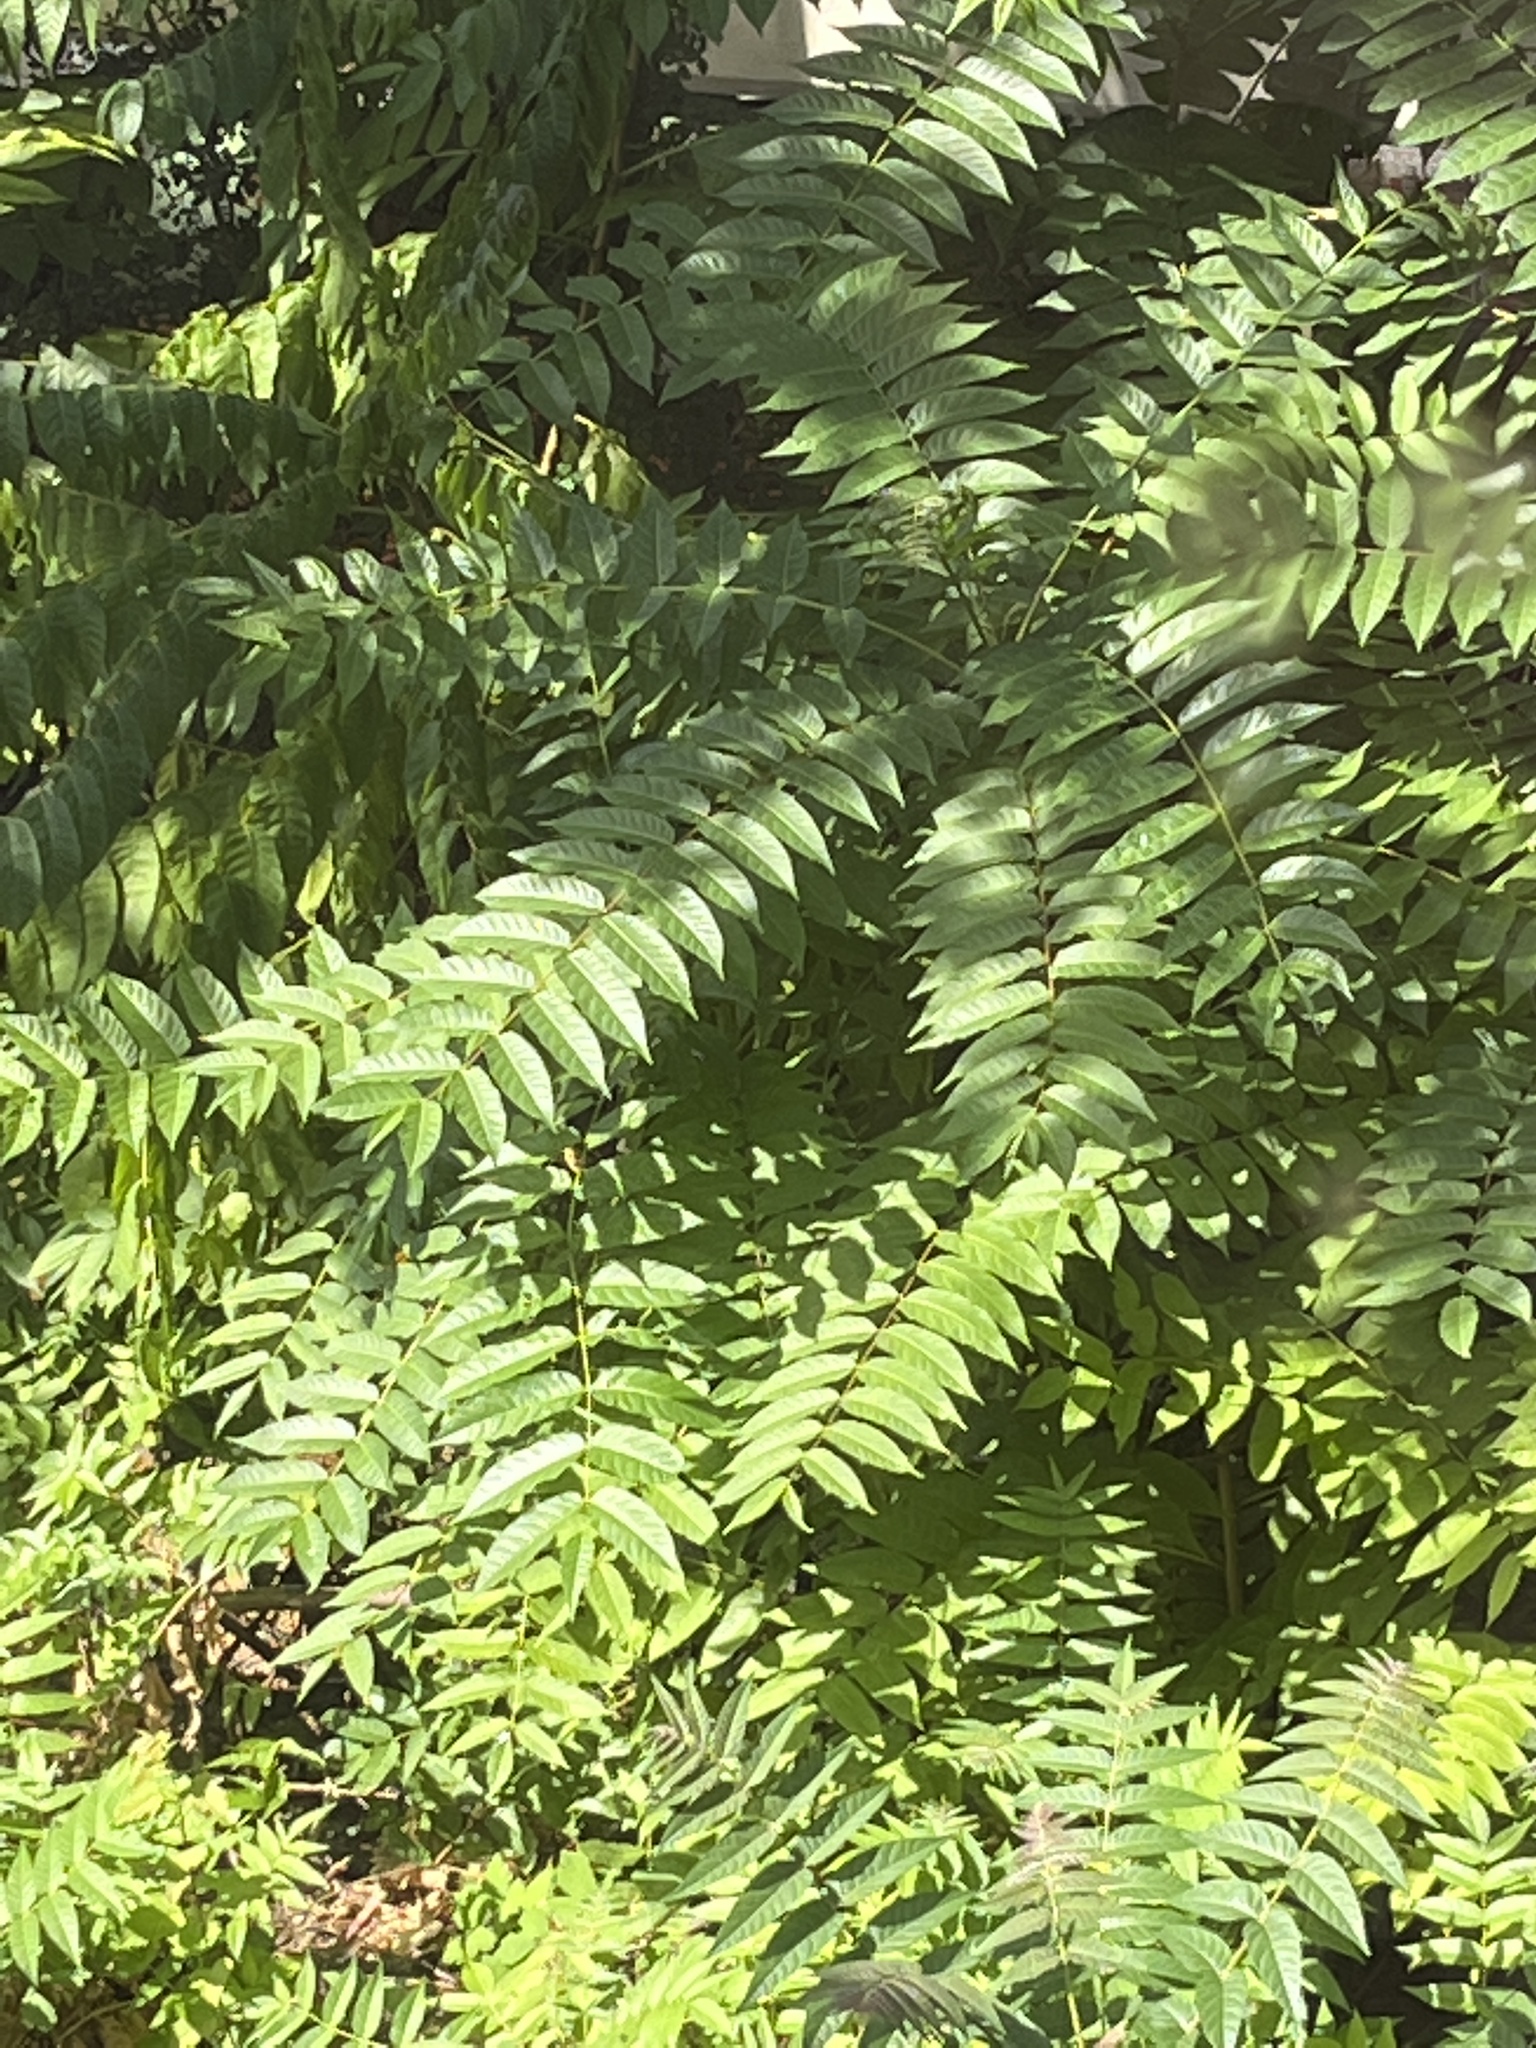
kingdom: Plantae
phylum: Tracheophyta
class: Magnoliopsida
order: Sapindales
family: Simaroubaceae
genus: Ailanthus
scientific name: Ailanthus altissima
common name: Tree-of-heaven
